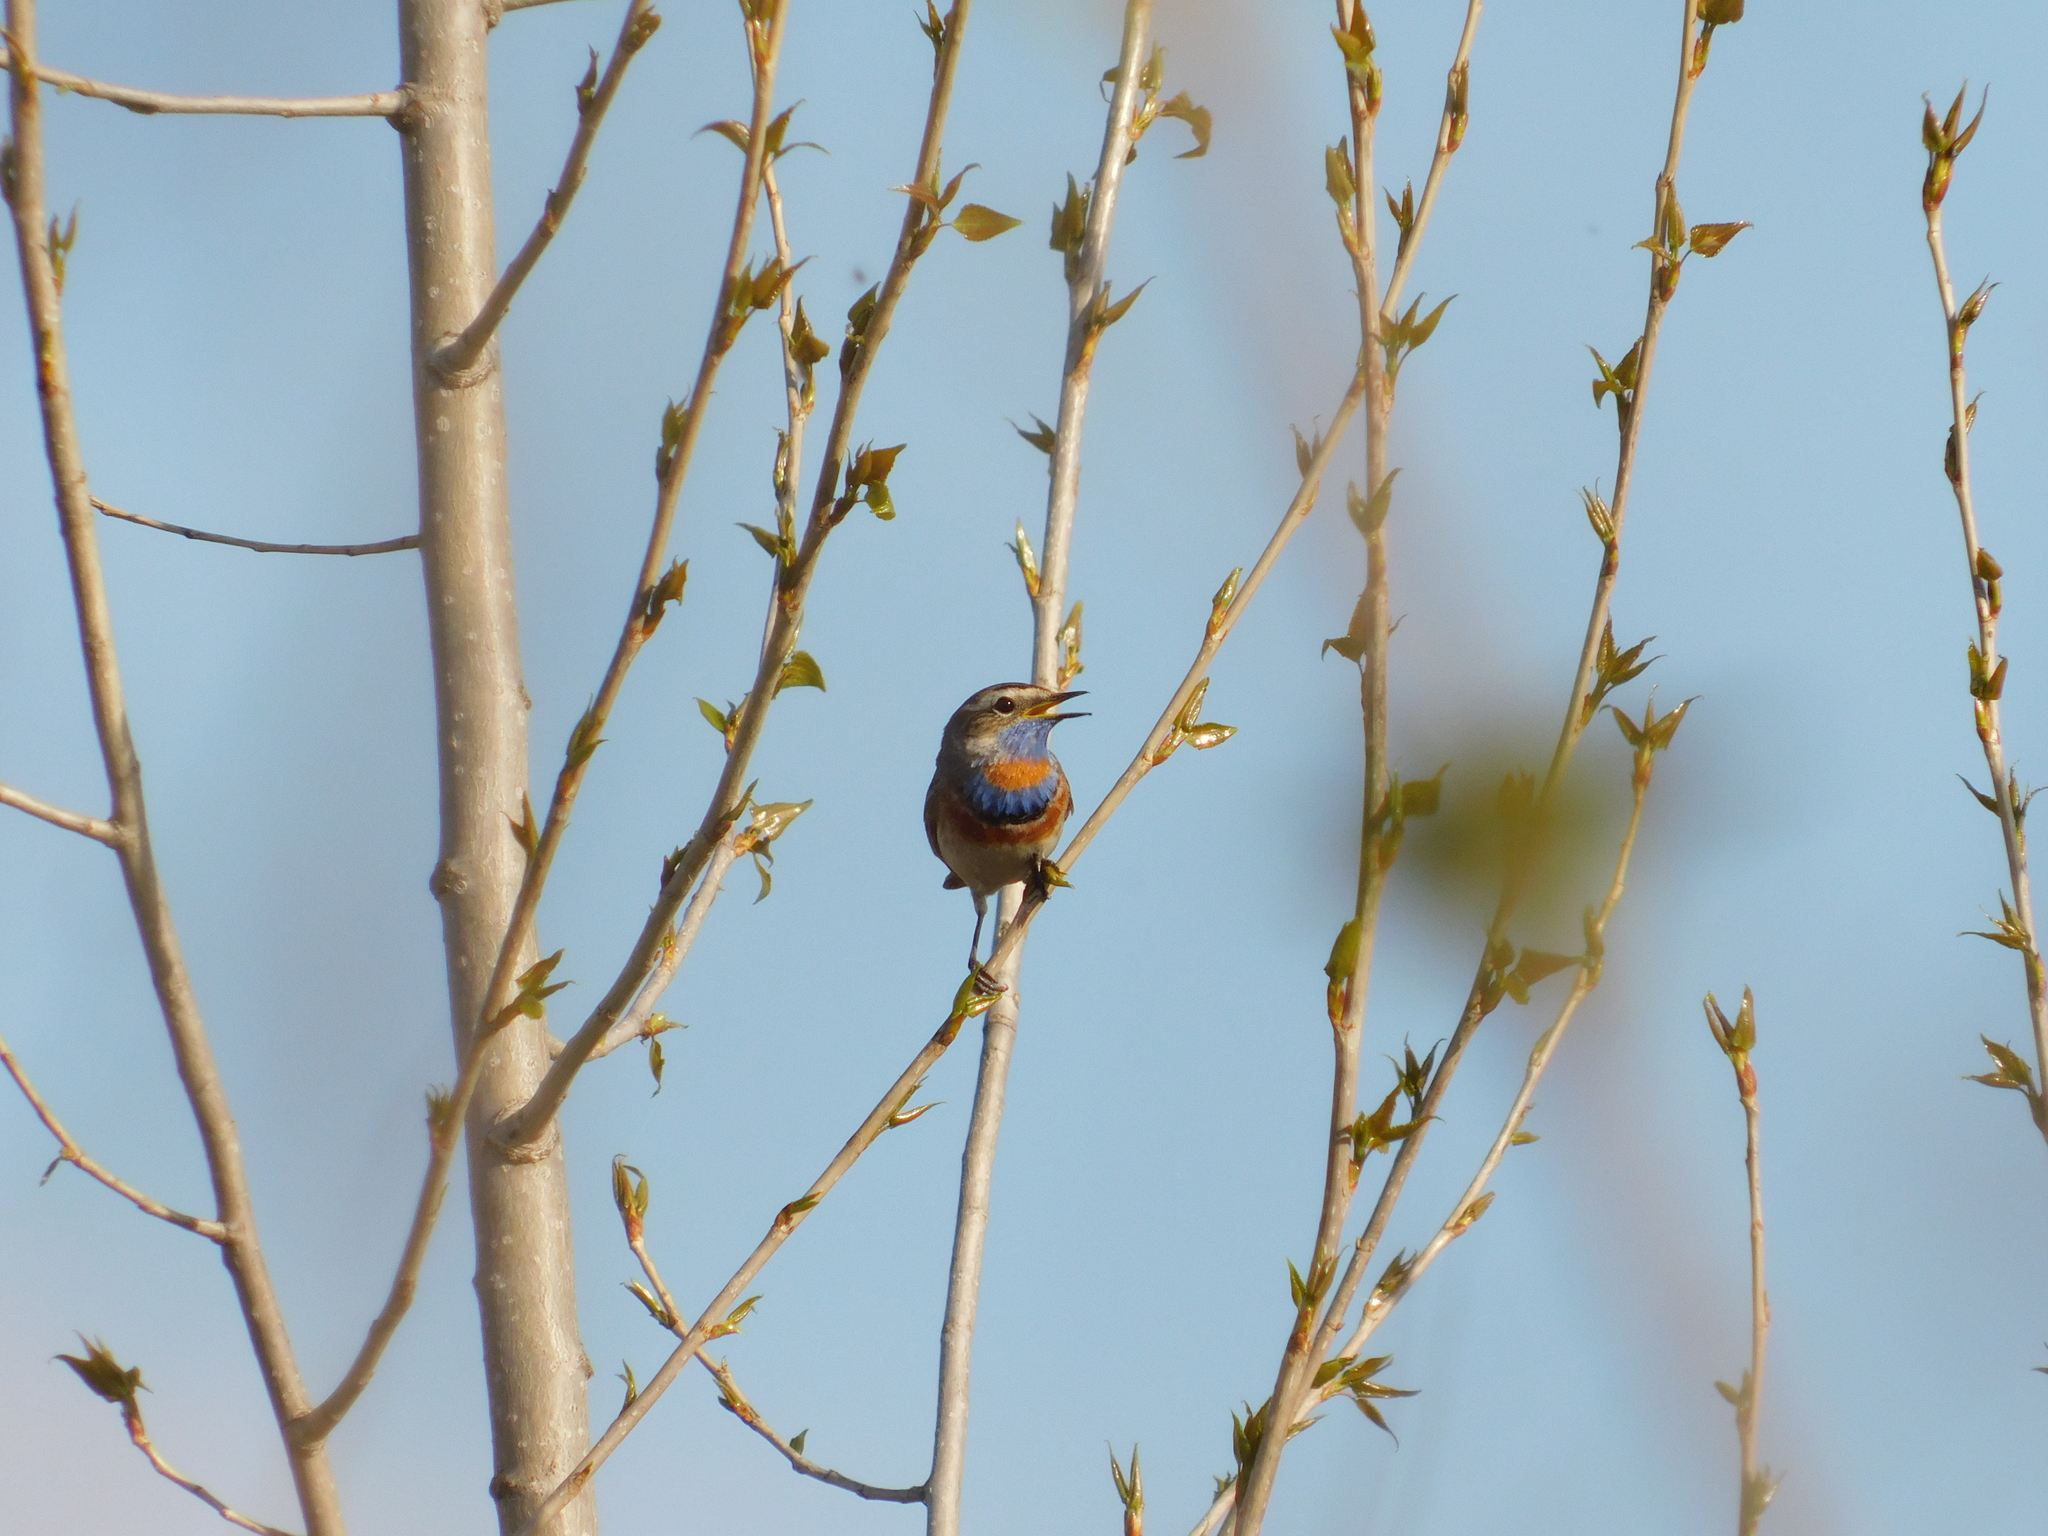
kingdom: Animalia
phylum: Chordata
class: Aves
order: Passeriformes
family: Muscicapidae
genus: Luscinia
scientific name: Luscinia svecica
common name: Bluethroat
